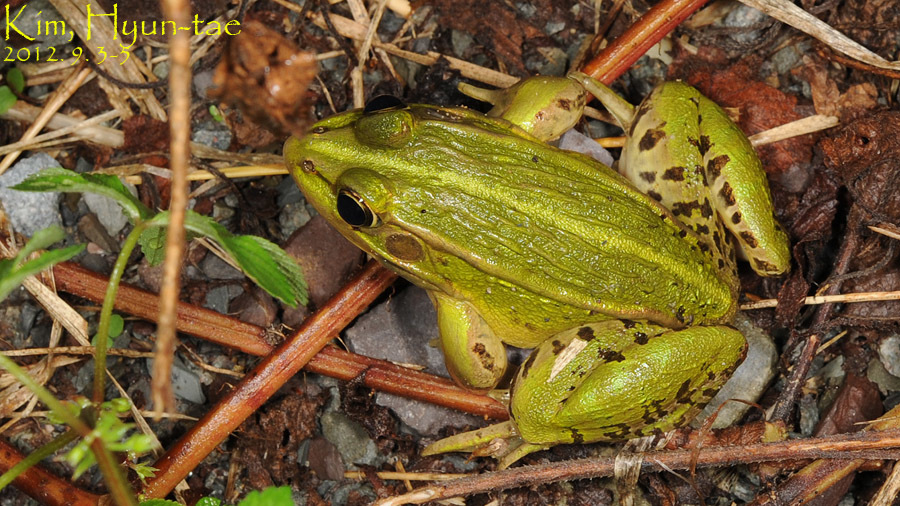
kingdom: Animalia
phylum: Chordata
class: Amphibia
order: Anura
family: Ranidae
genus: Pelophylax
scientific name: Pelophylax nigromaculatus
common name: Black-spotted pond frog
